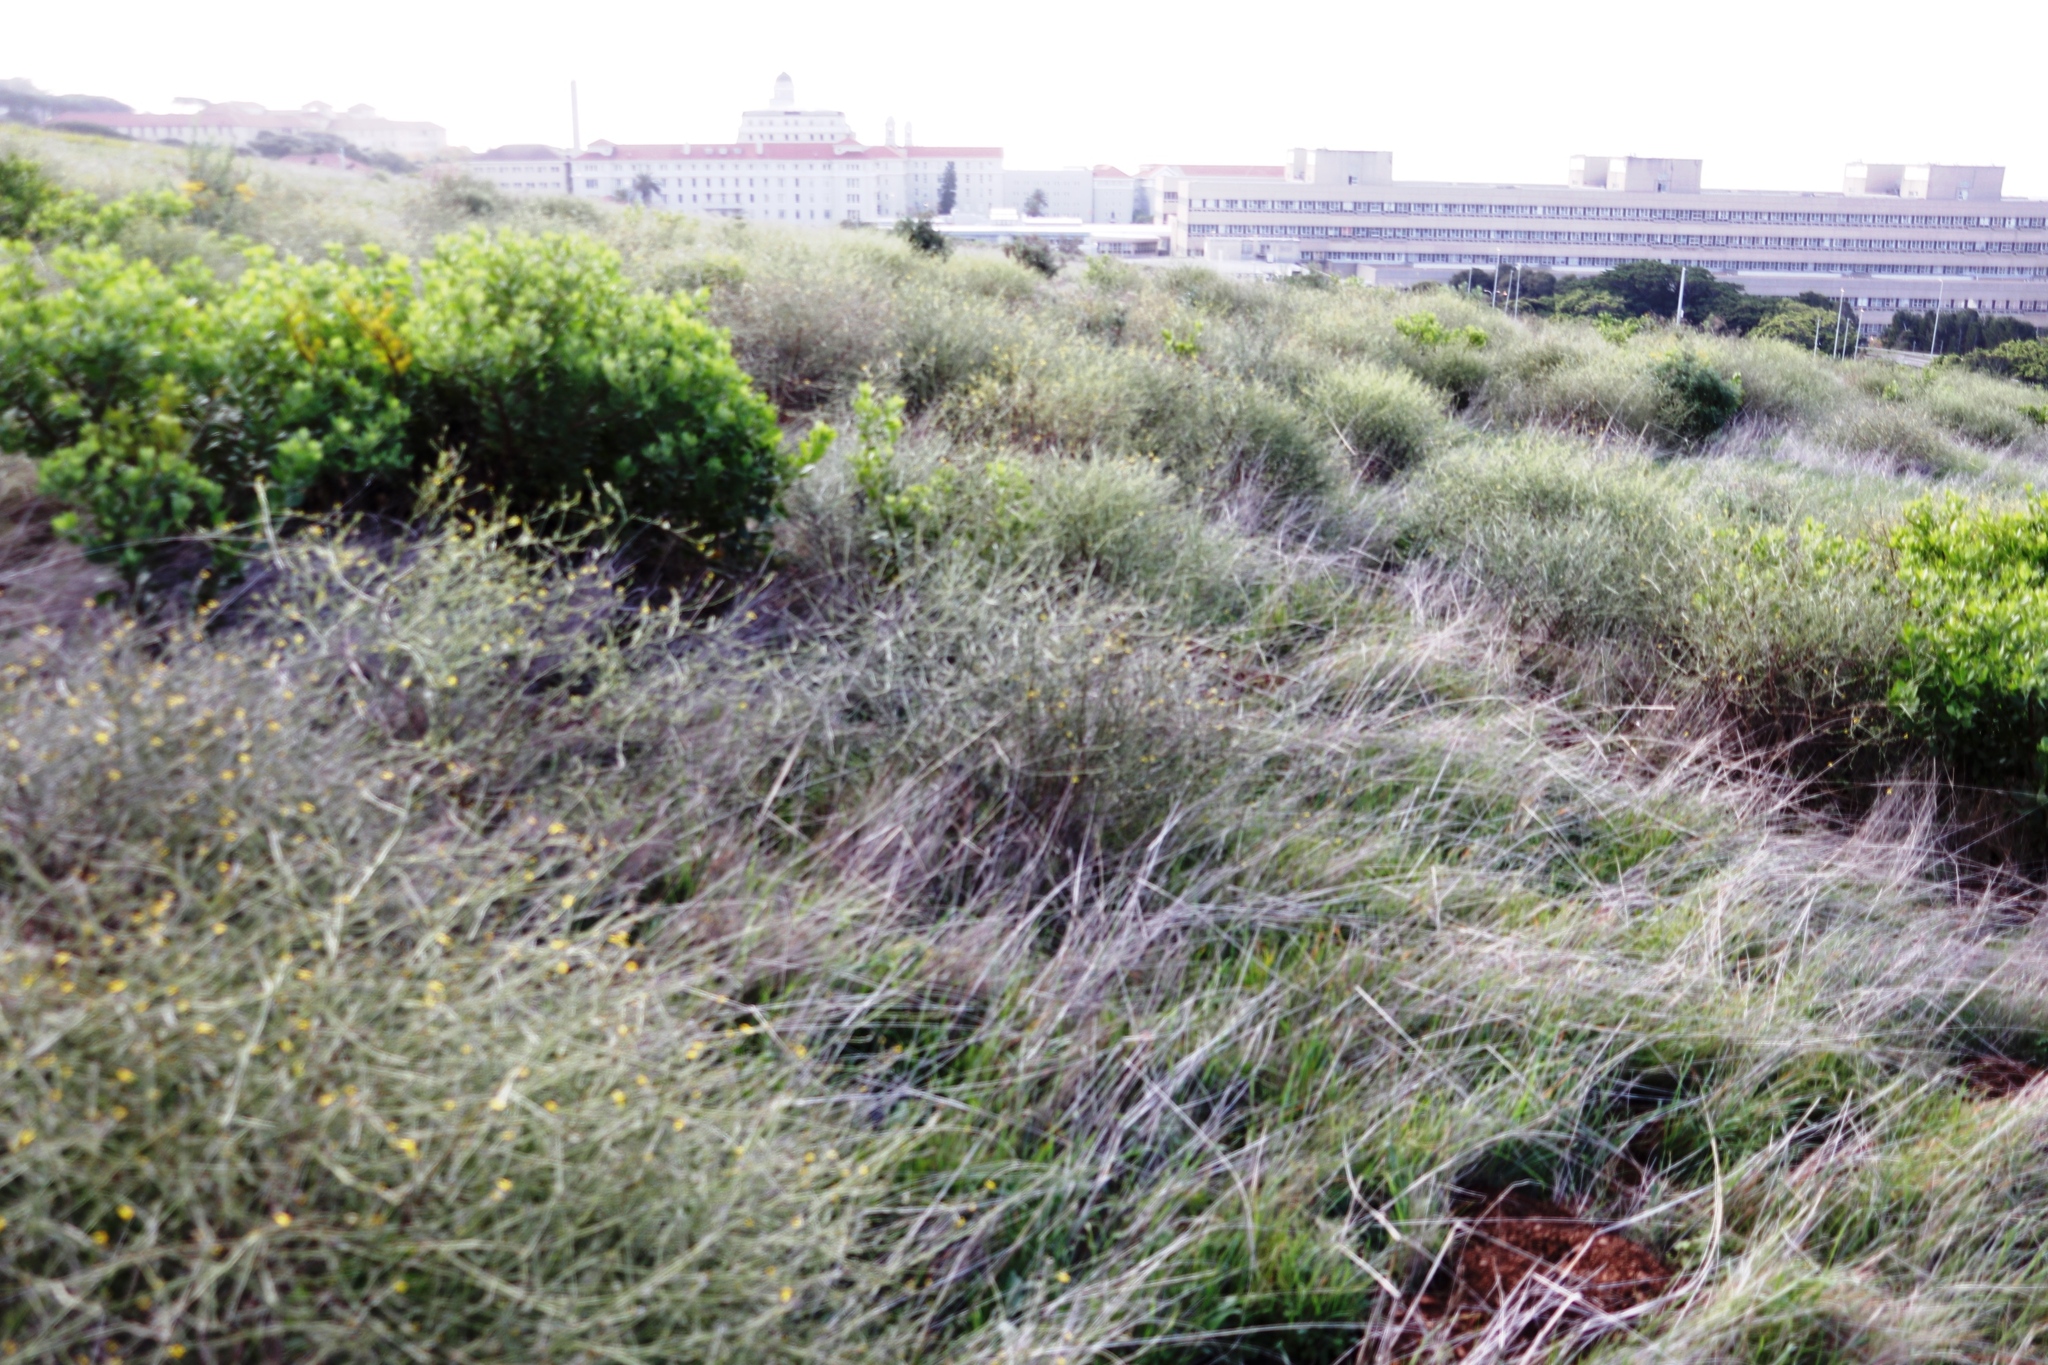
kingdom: Plantae
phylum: Tracheophyta
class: Magnoliopsida
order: Asterales
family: Asteraceae
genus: Senecio
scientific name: Senecio pubigerus
